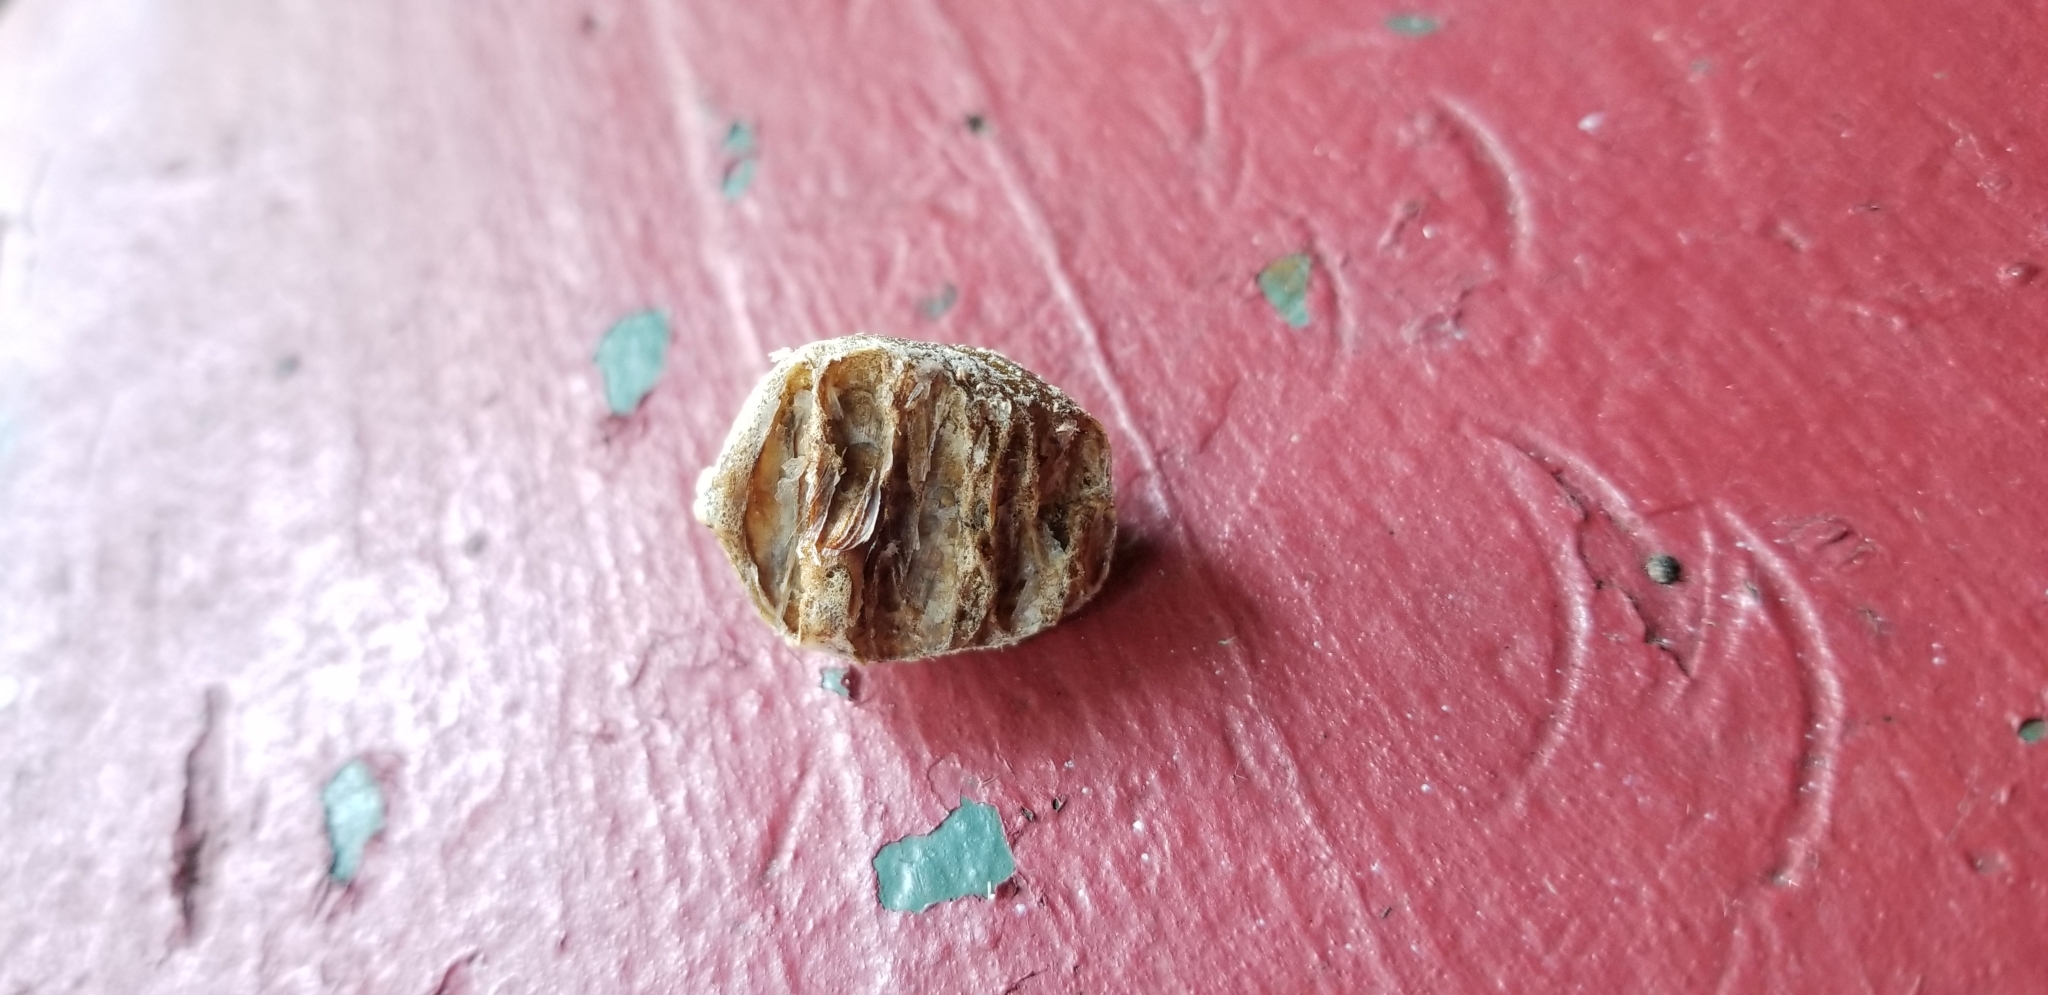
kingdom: Animalia
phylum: Arthropoda
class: Insecta
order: Mantodea
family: Mantidae
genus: Hierodula
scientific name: Hierodula patellifera
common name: Asian mantis
